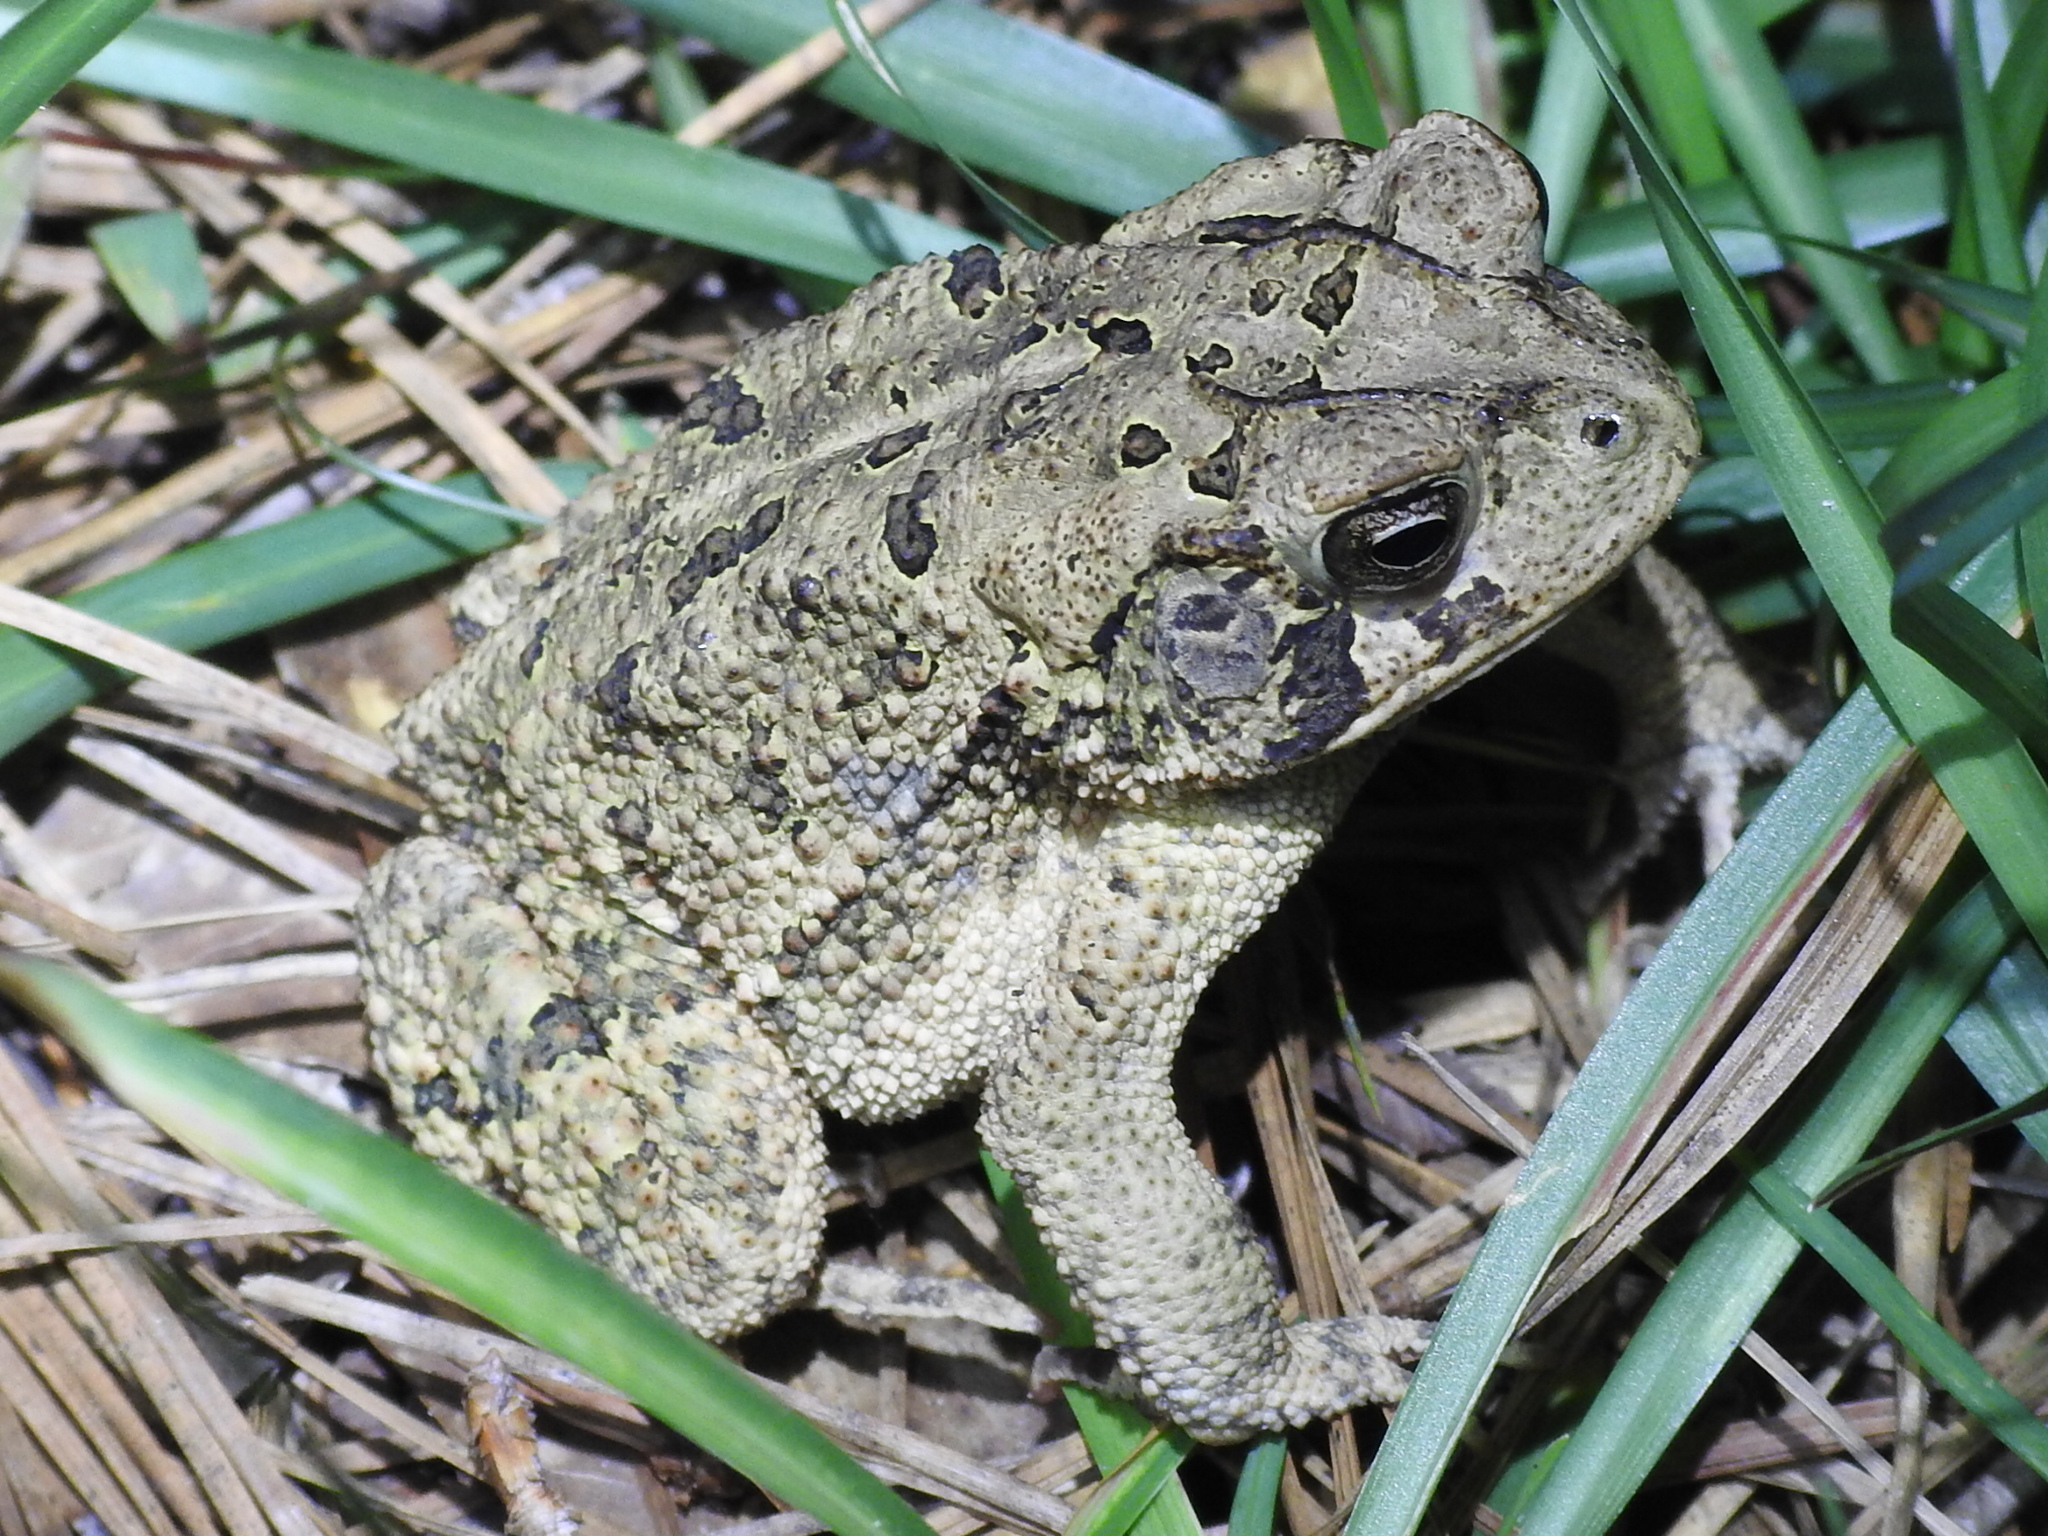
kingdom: Animalia
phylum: Chordata
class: Amphibia
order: Anura
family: Bufonidae
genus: Incilius
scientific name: Incilius nebulifer
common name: Gulf coast toad
